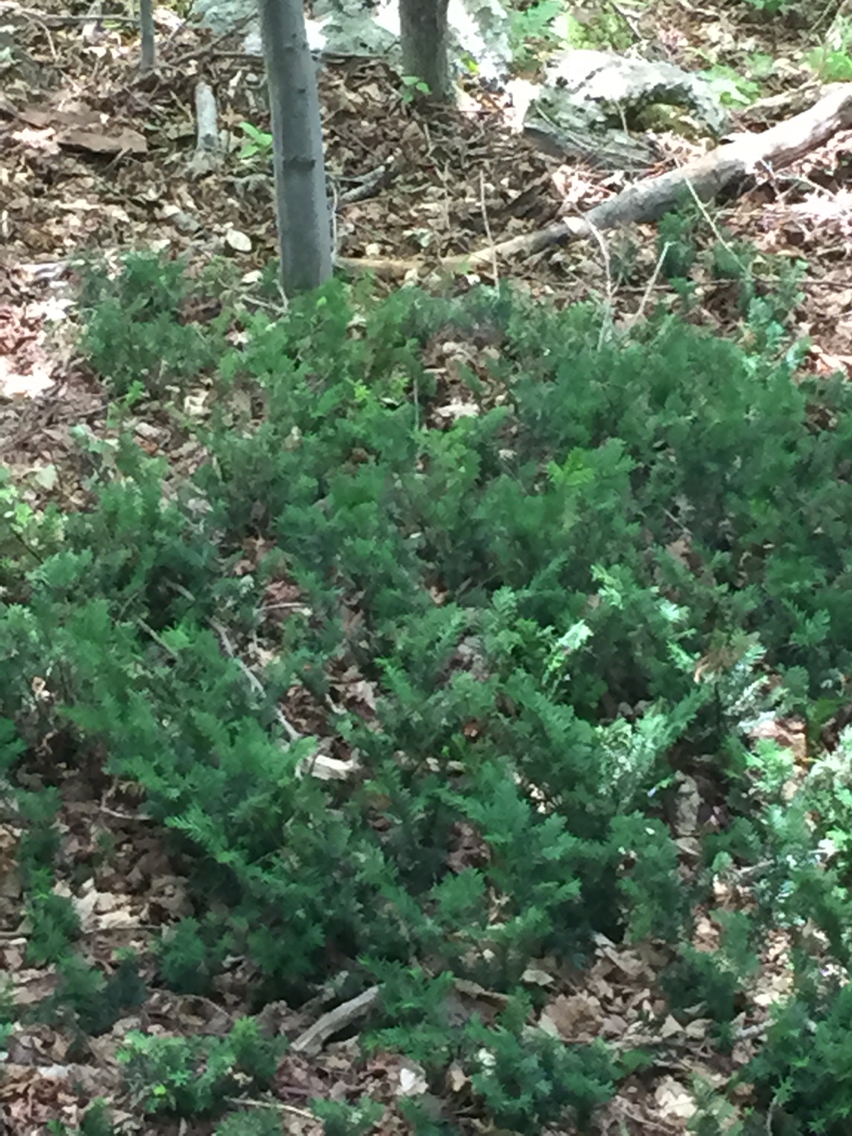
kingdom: Plantae
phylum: Tracheophyta
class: Pinopsida
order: Pinales
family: Taxaceae
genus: Taxus
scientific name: Taxus canadensis
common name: American yew
